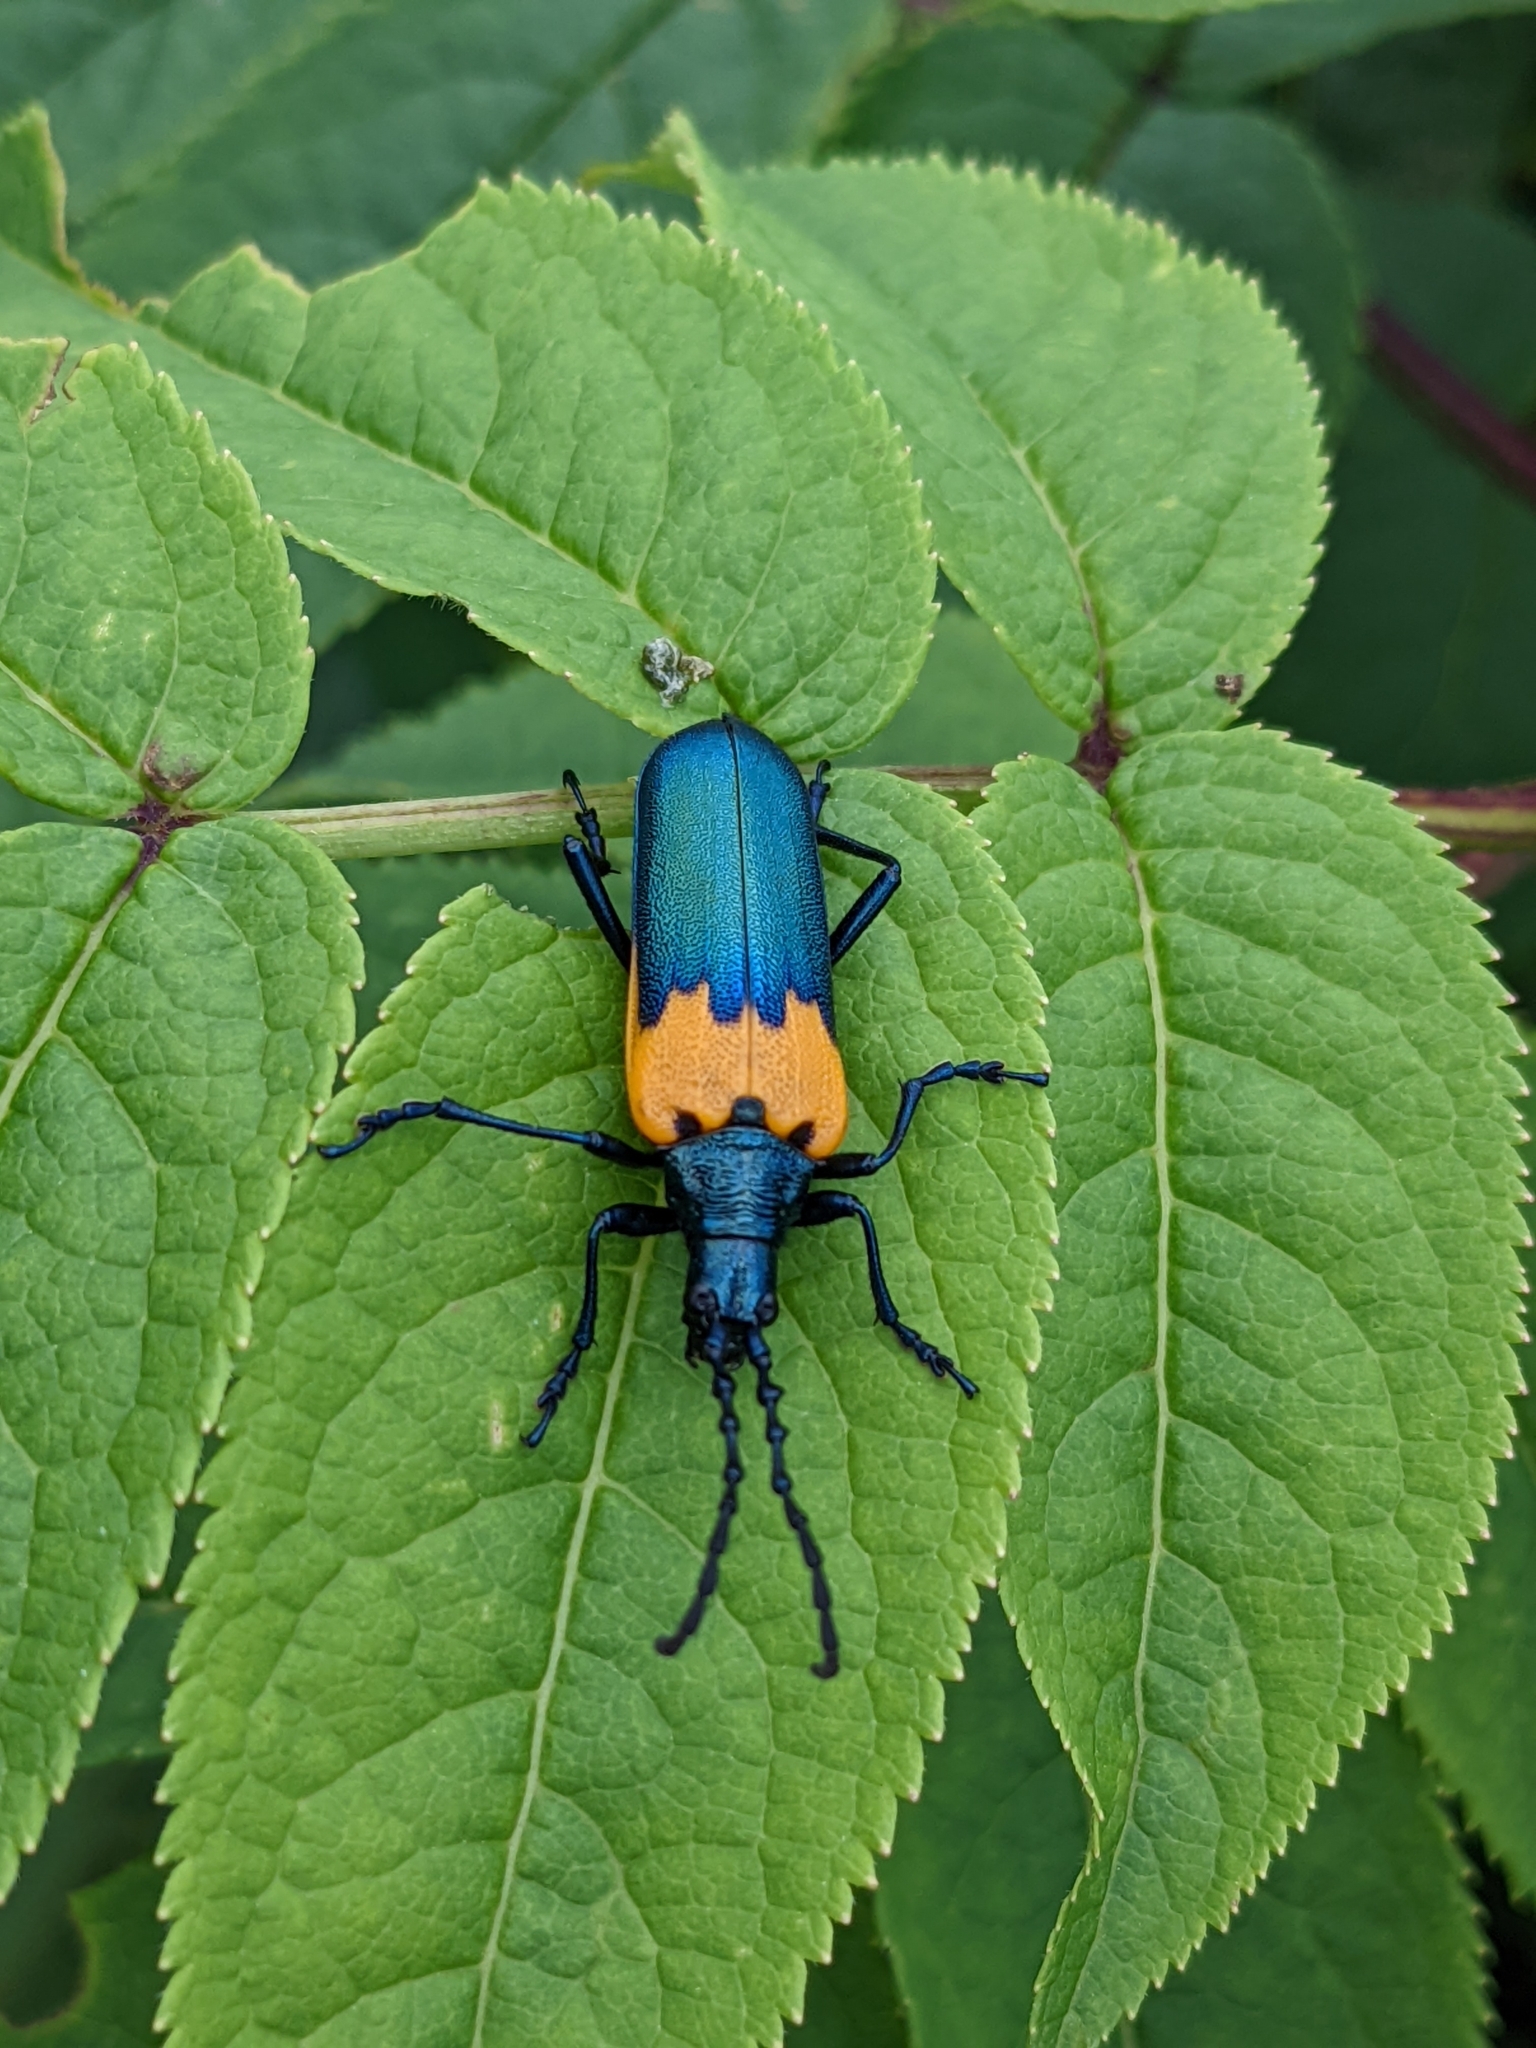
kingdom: Animalia
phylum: Arthropoda
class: Insecta
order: Coleoptera
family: Cerambycidae
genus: Desmocerus
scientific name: Desmocerus palliatus
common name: Eastern elderberry borer
